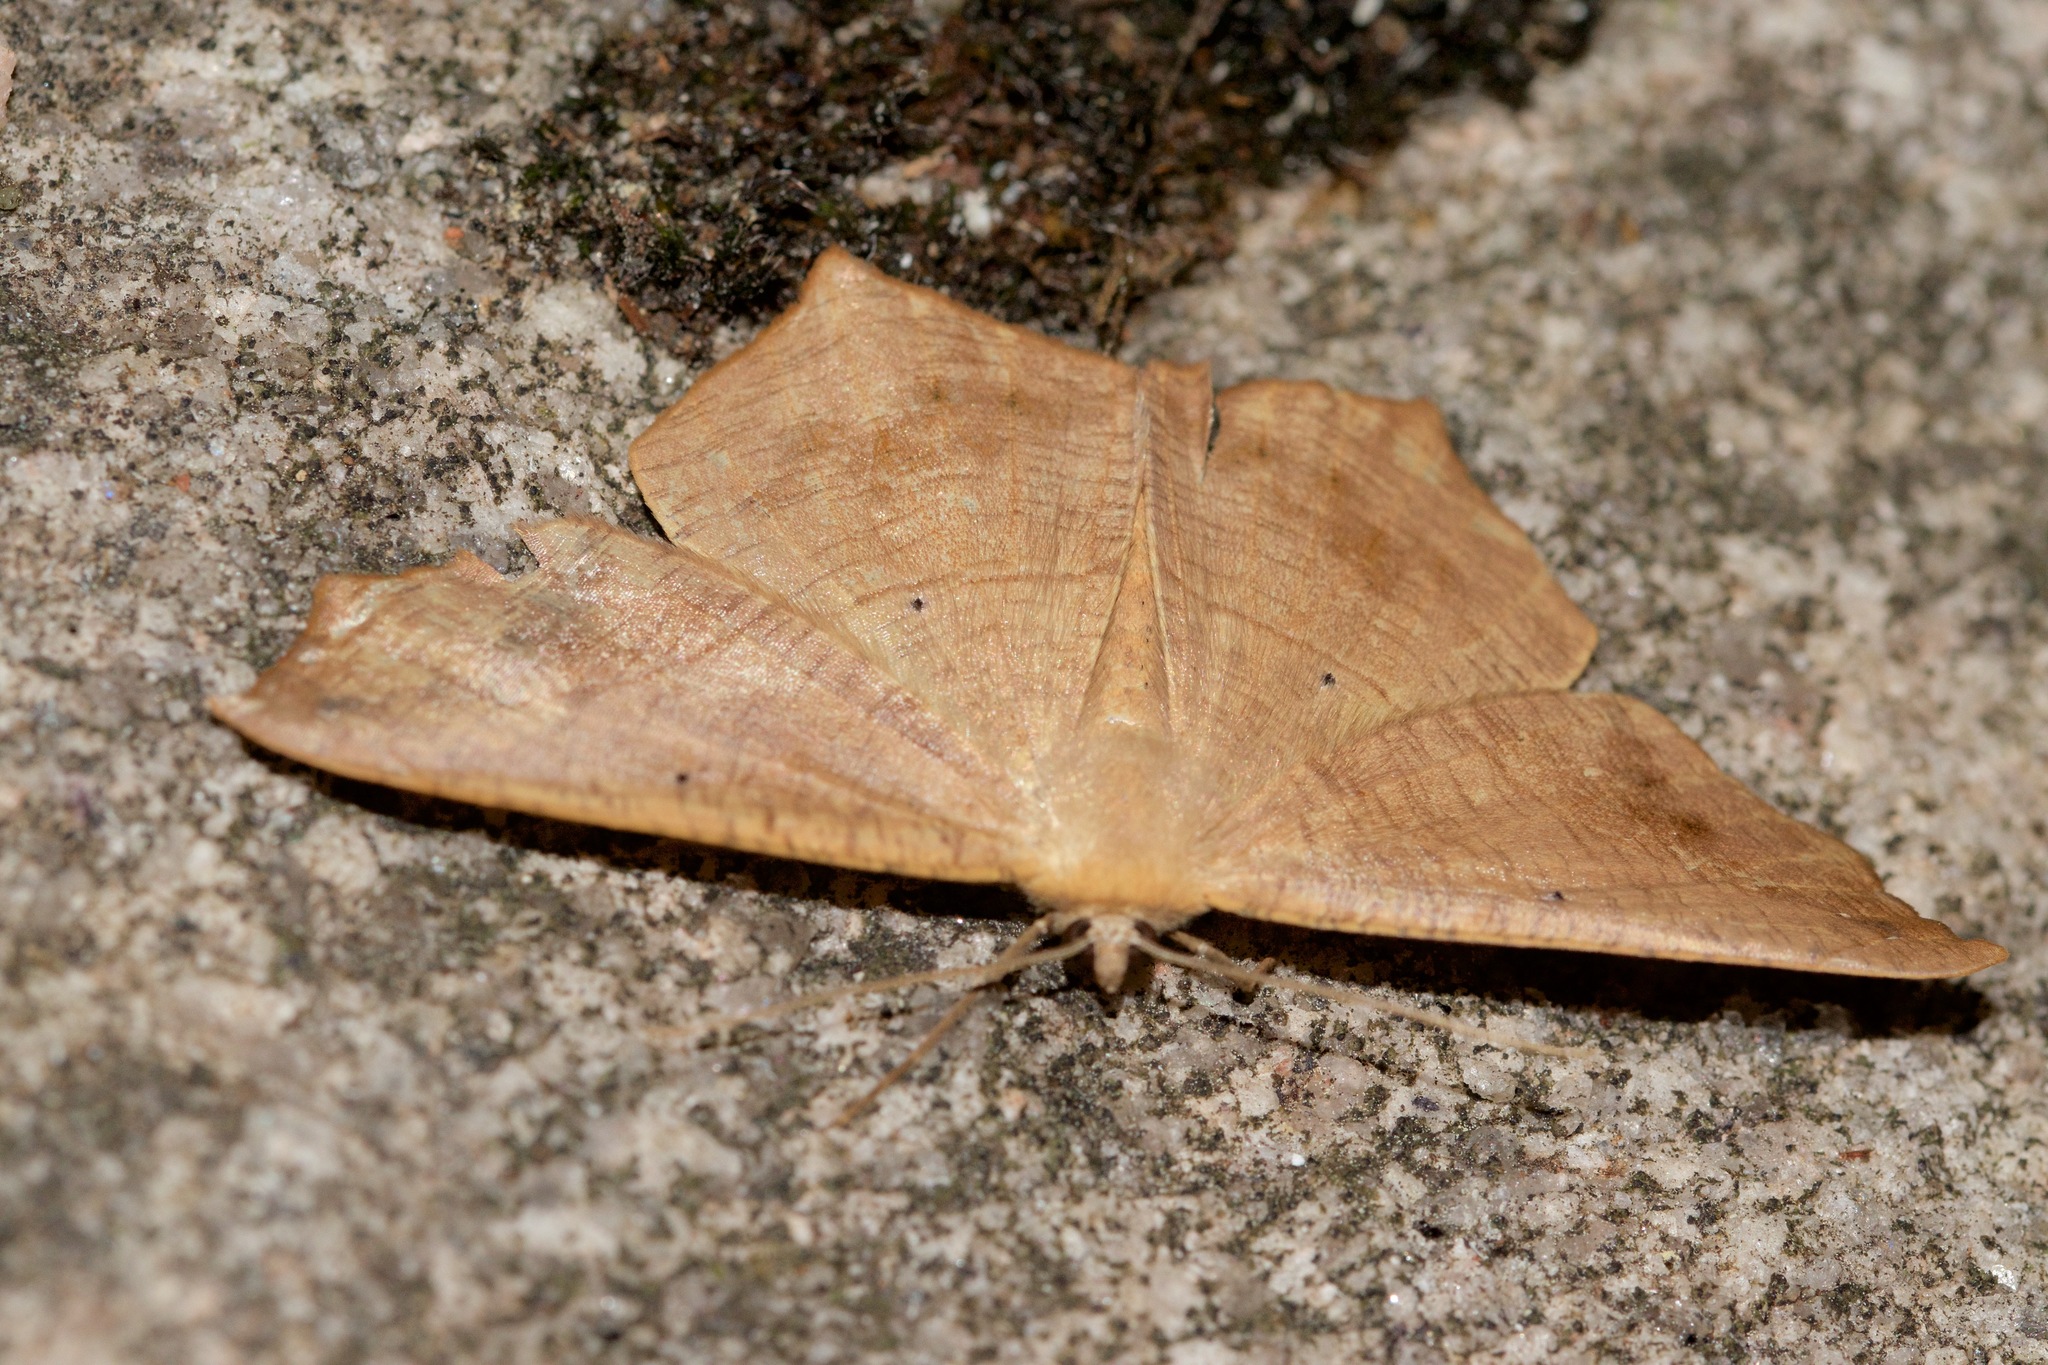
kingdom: Animalia
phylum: Arthropoda
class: Insecta
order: Lepidoptera
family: Geometridae
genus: Prochoerodes
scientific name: Prochoerodes lineola
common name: Large maple spanworm
